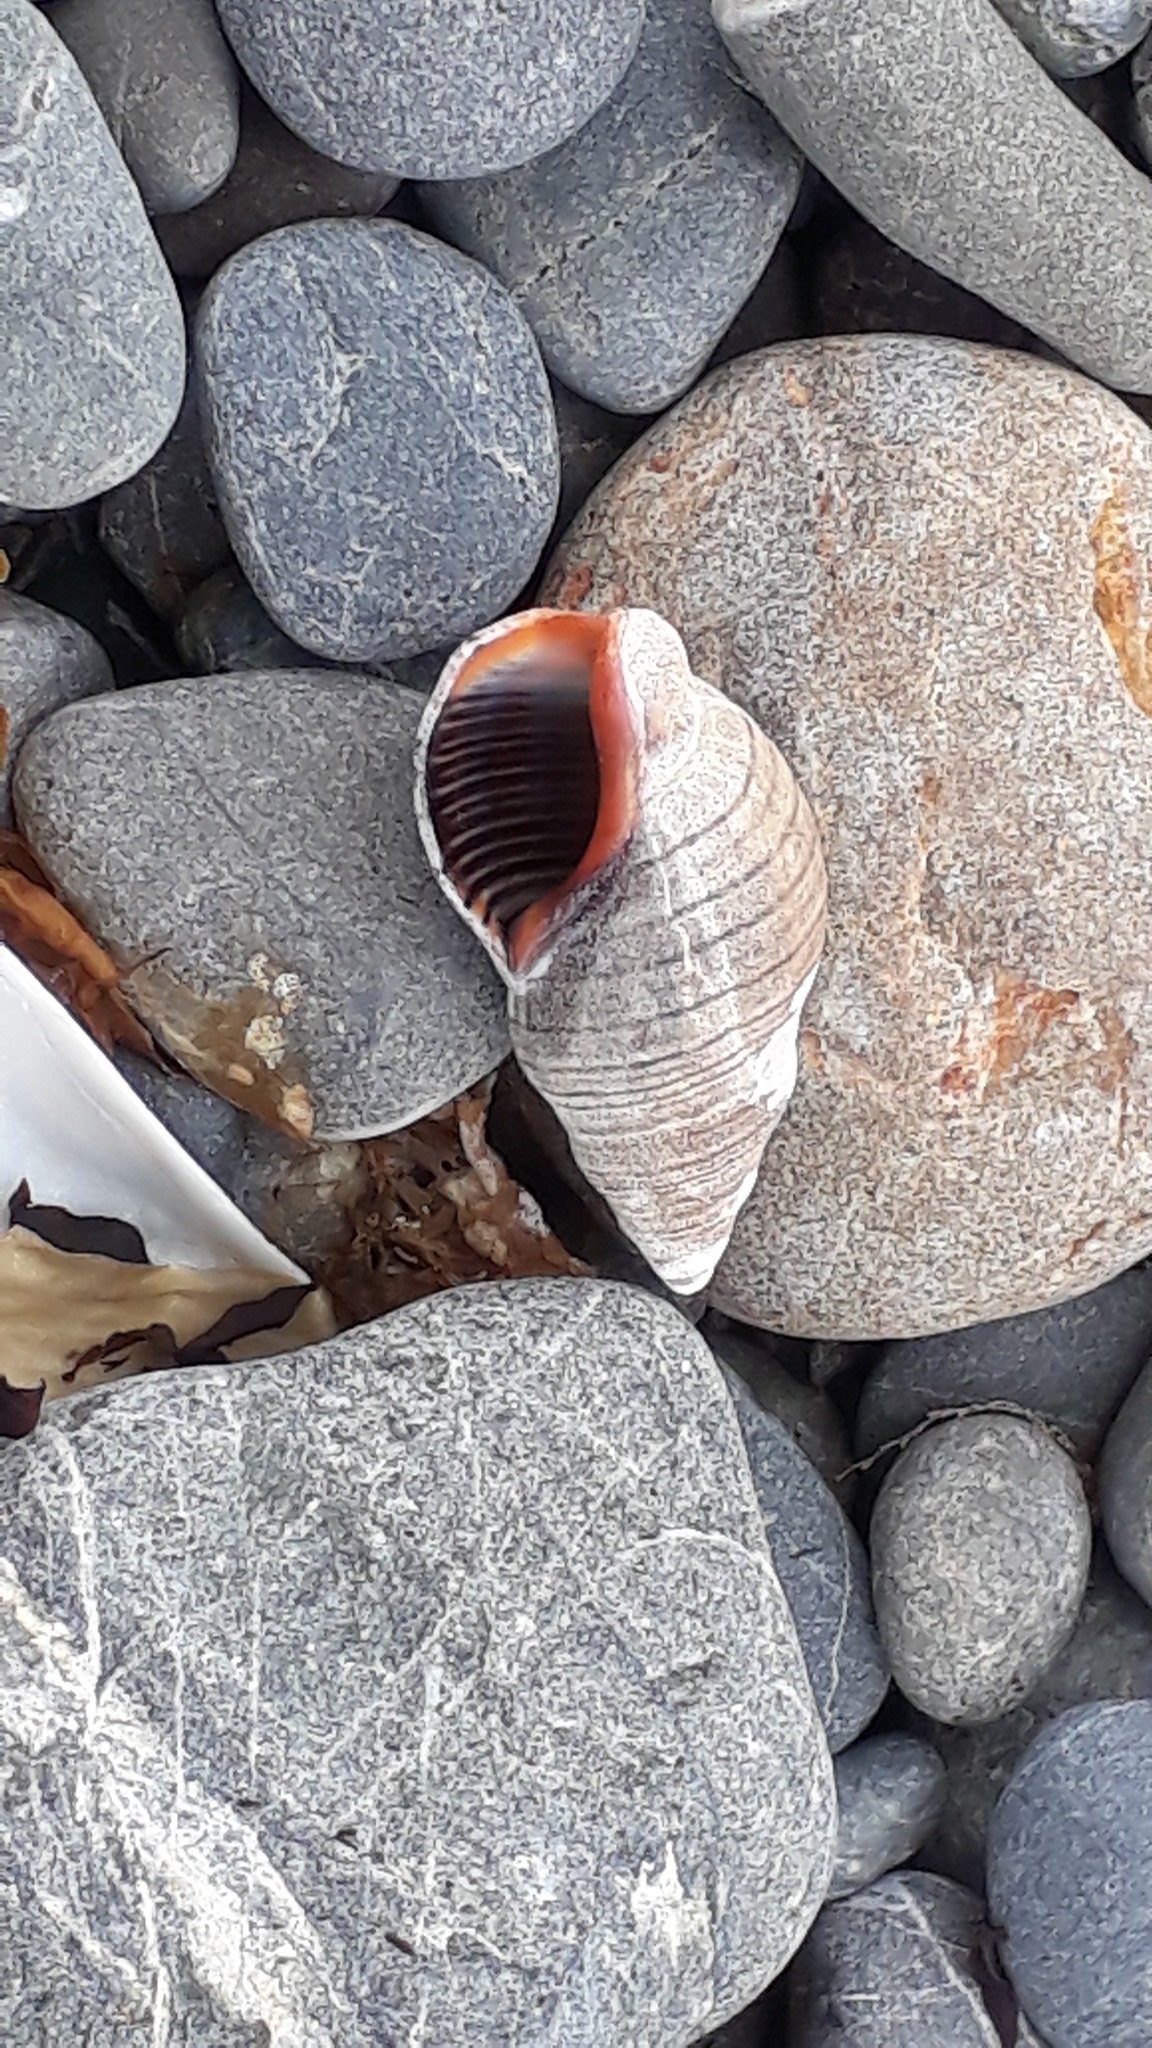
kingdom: Animalia
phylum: Mollusca
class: Gastropoda
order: Neogastropoda
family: Cominellidae
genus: Cominella
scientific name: Cominella virgata
